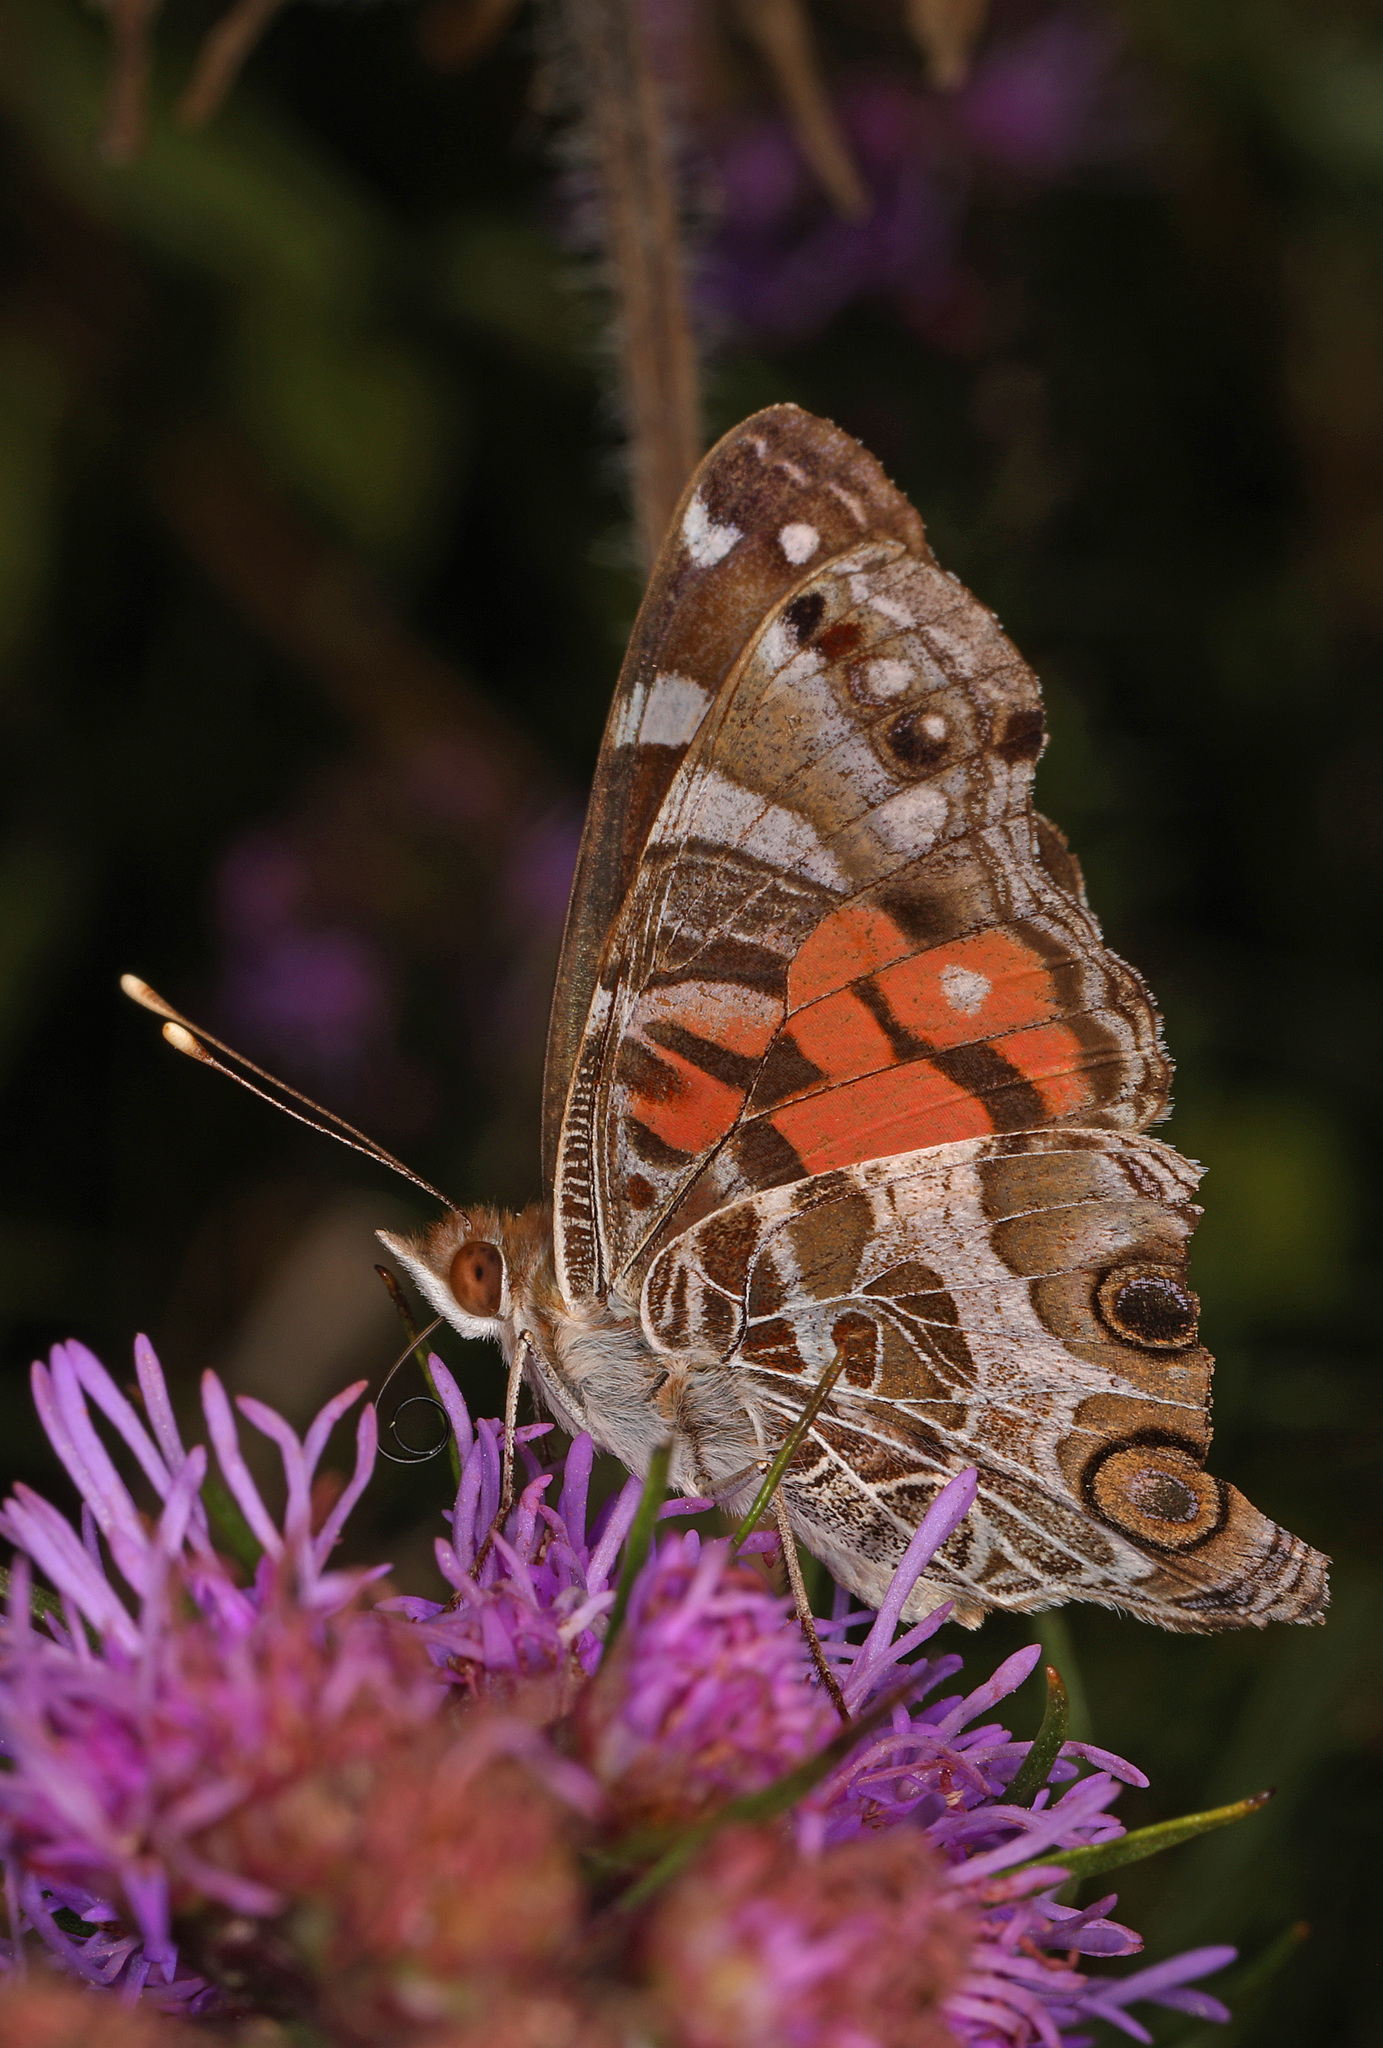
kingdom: Animalia
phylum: Arthropoda
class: Insecta
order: Lepidoptera
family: Nymphalidae
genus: Vanessa
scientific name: Vanessa virginiensis
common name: American lady
